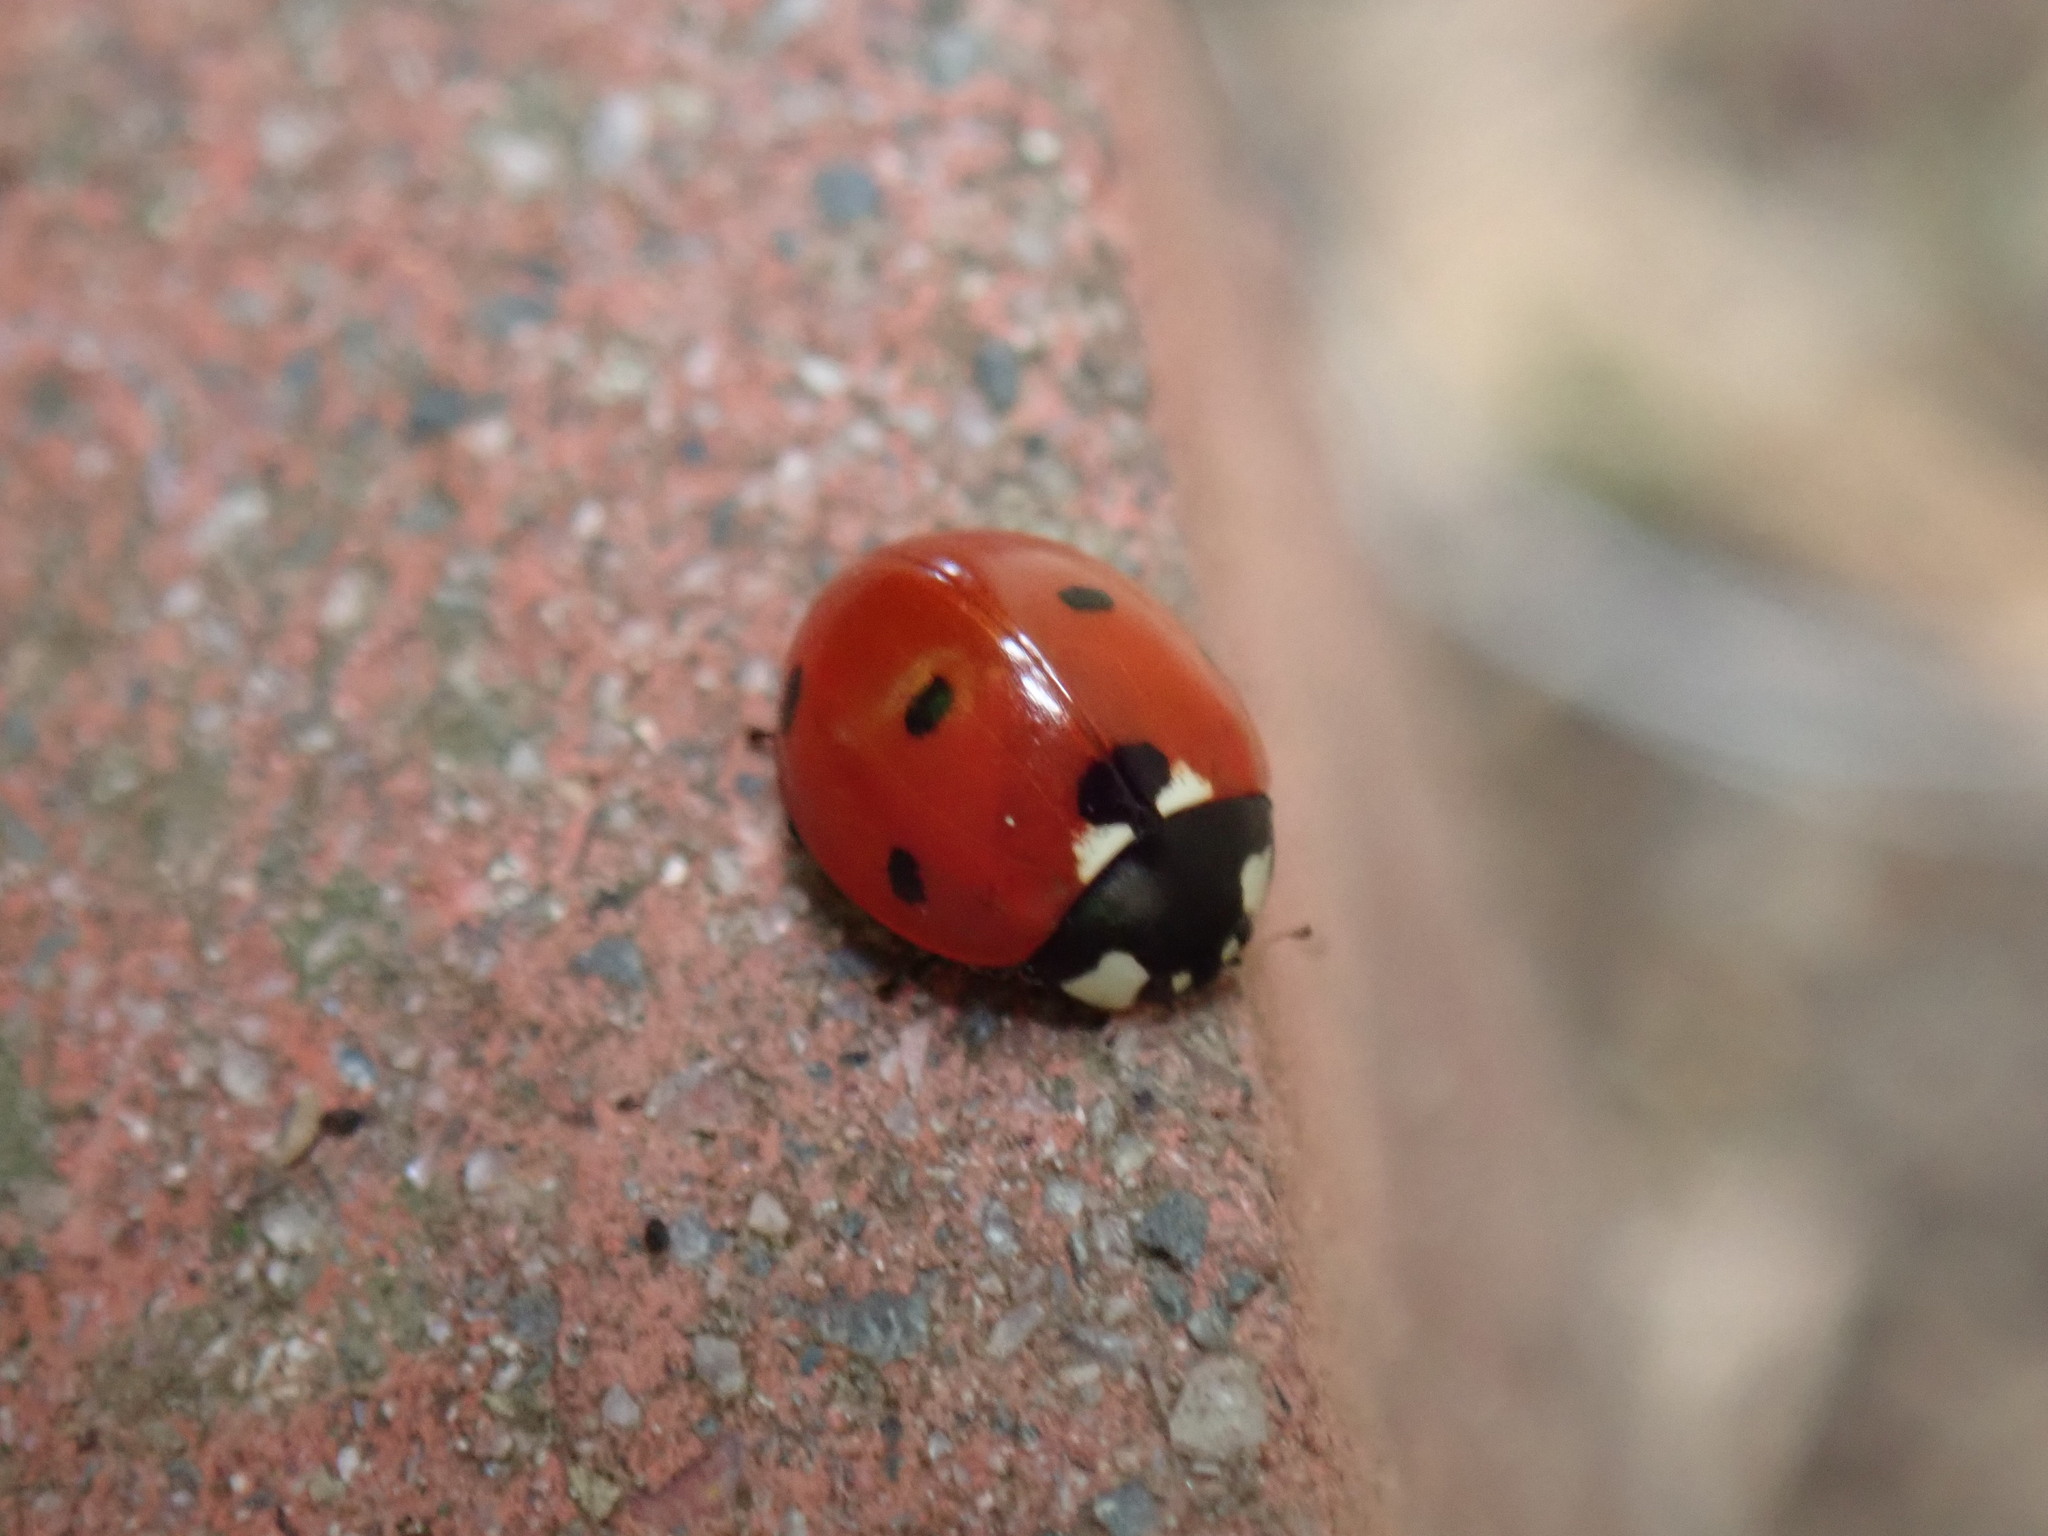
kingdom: Animalia
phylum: Arthropoda
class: Insecta
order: Coleoptera
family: Coccinellidae
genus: Coccinella
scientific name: Coccinella septempunctata
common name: Sevenspotted lady beetle
